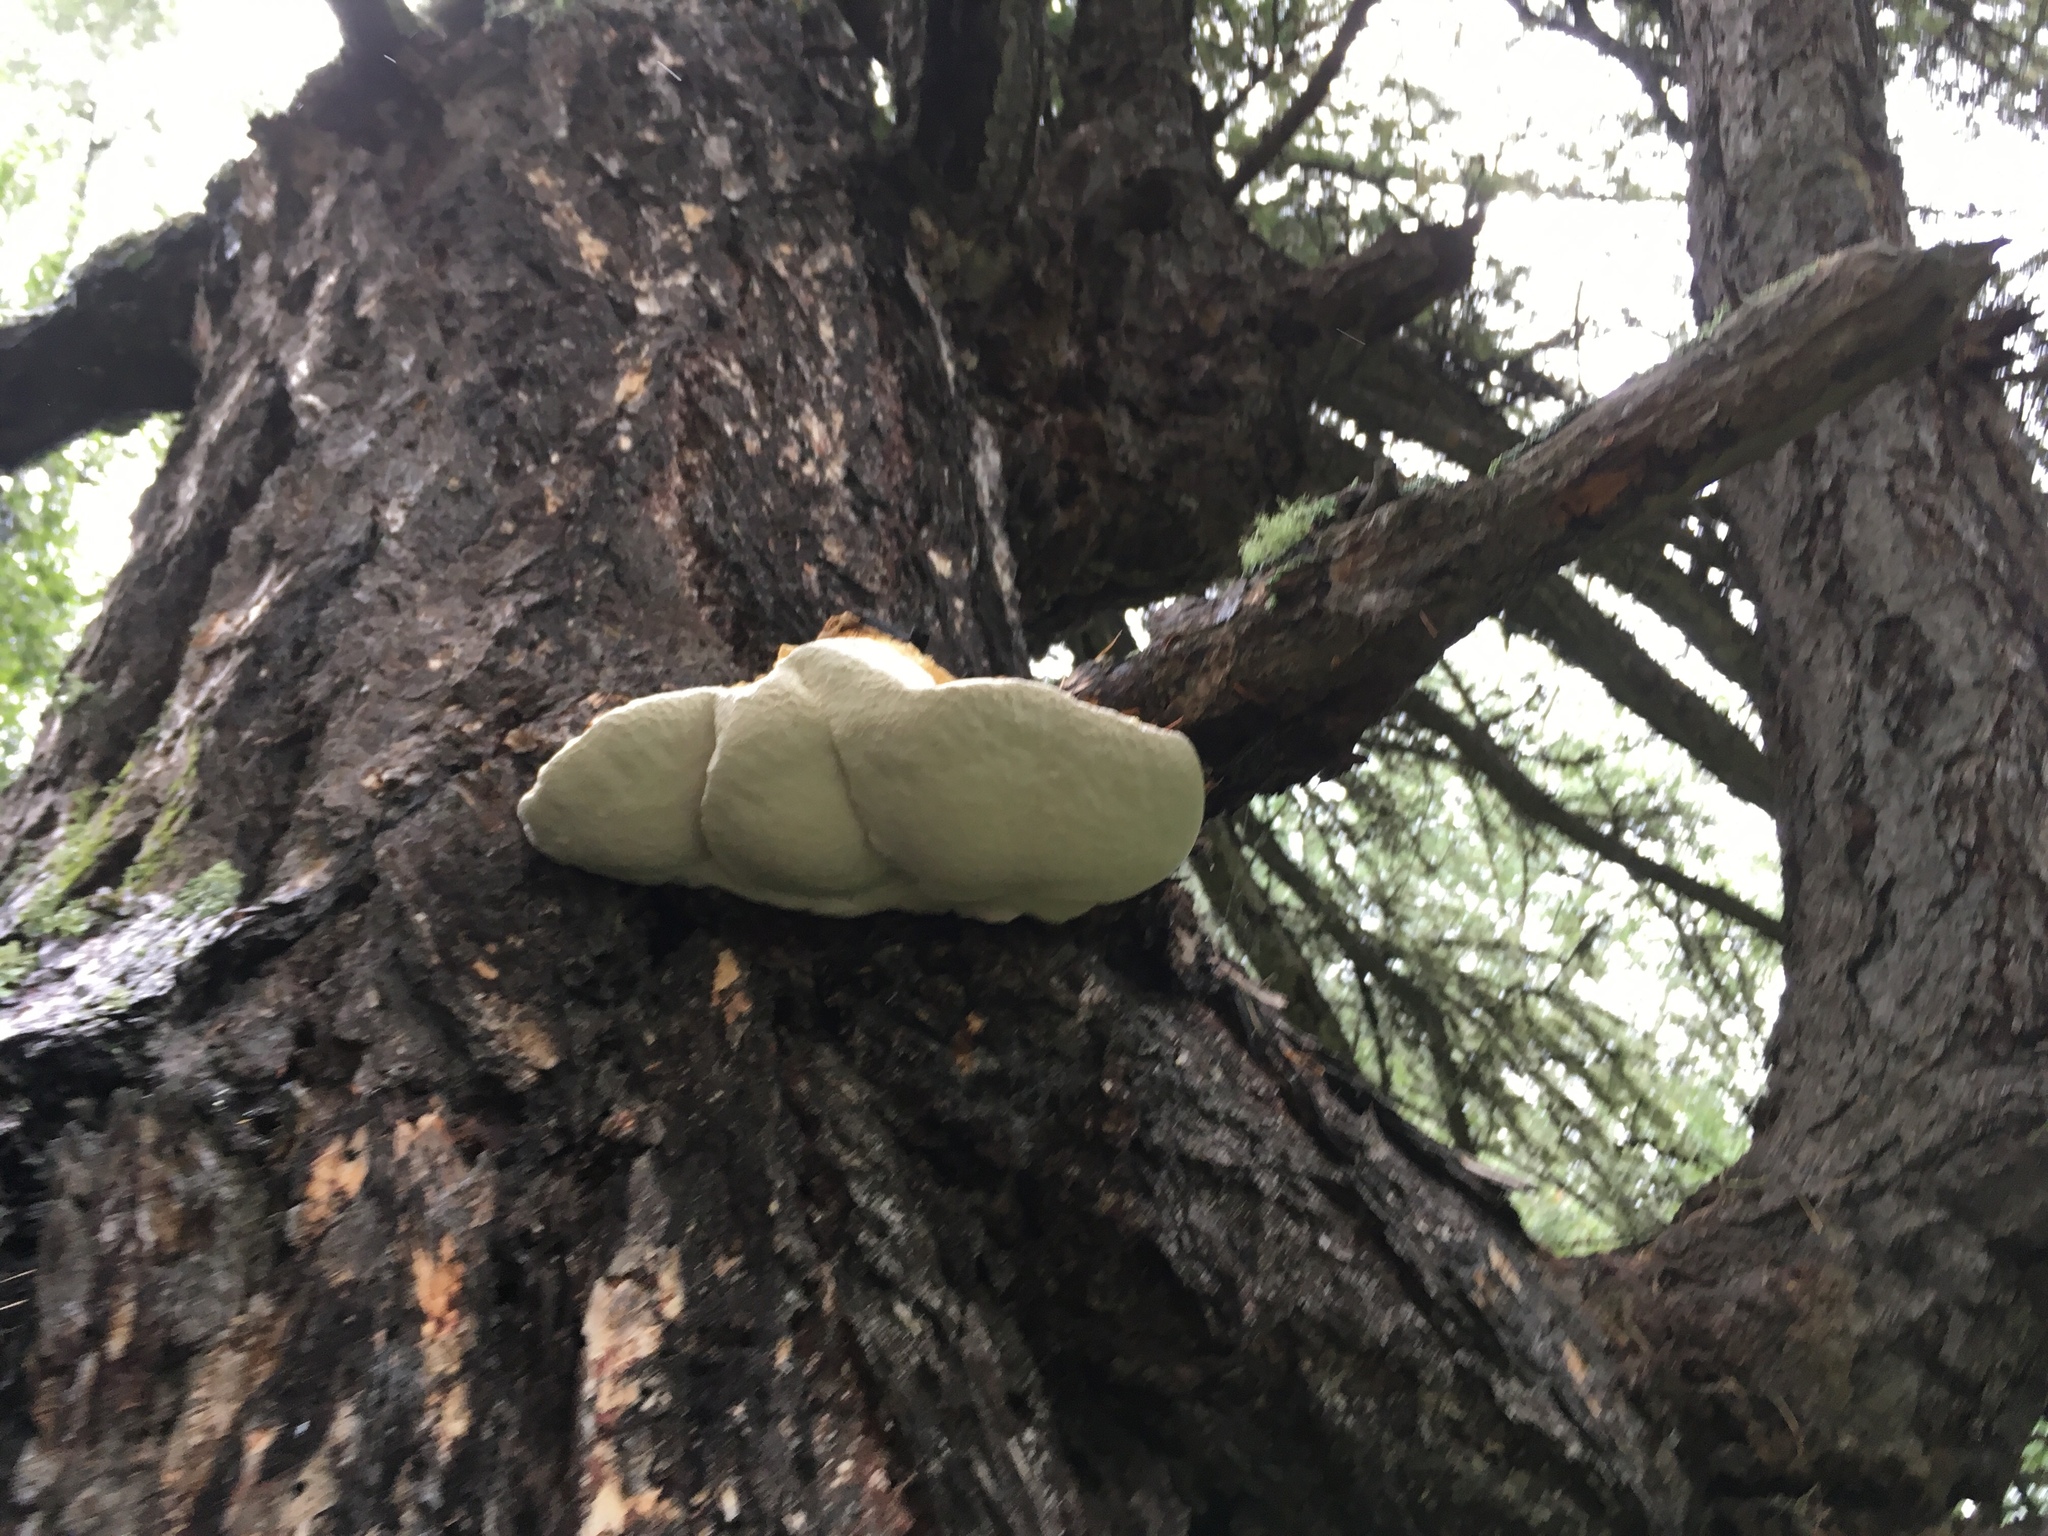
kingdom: Fungi
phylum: Basidiomycota
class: Agaricomycetes
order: Polyporales
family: Fomitopsidaceae
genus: Fomitopsis
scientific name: Fomitopsis officinalis
